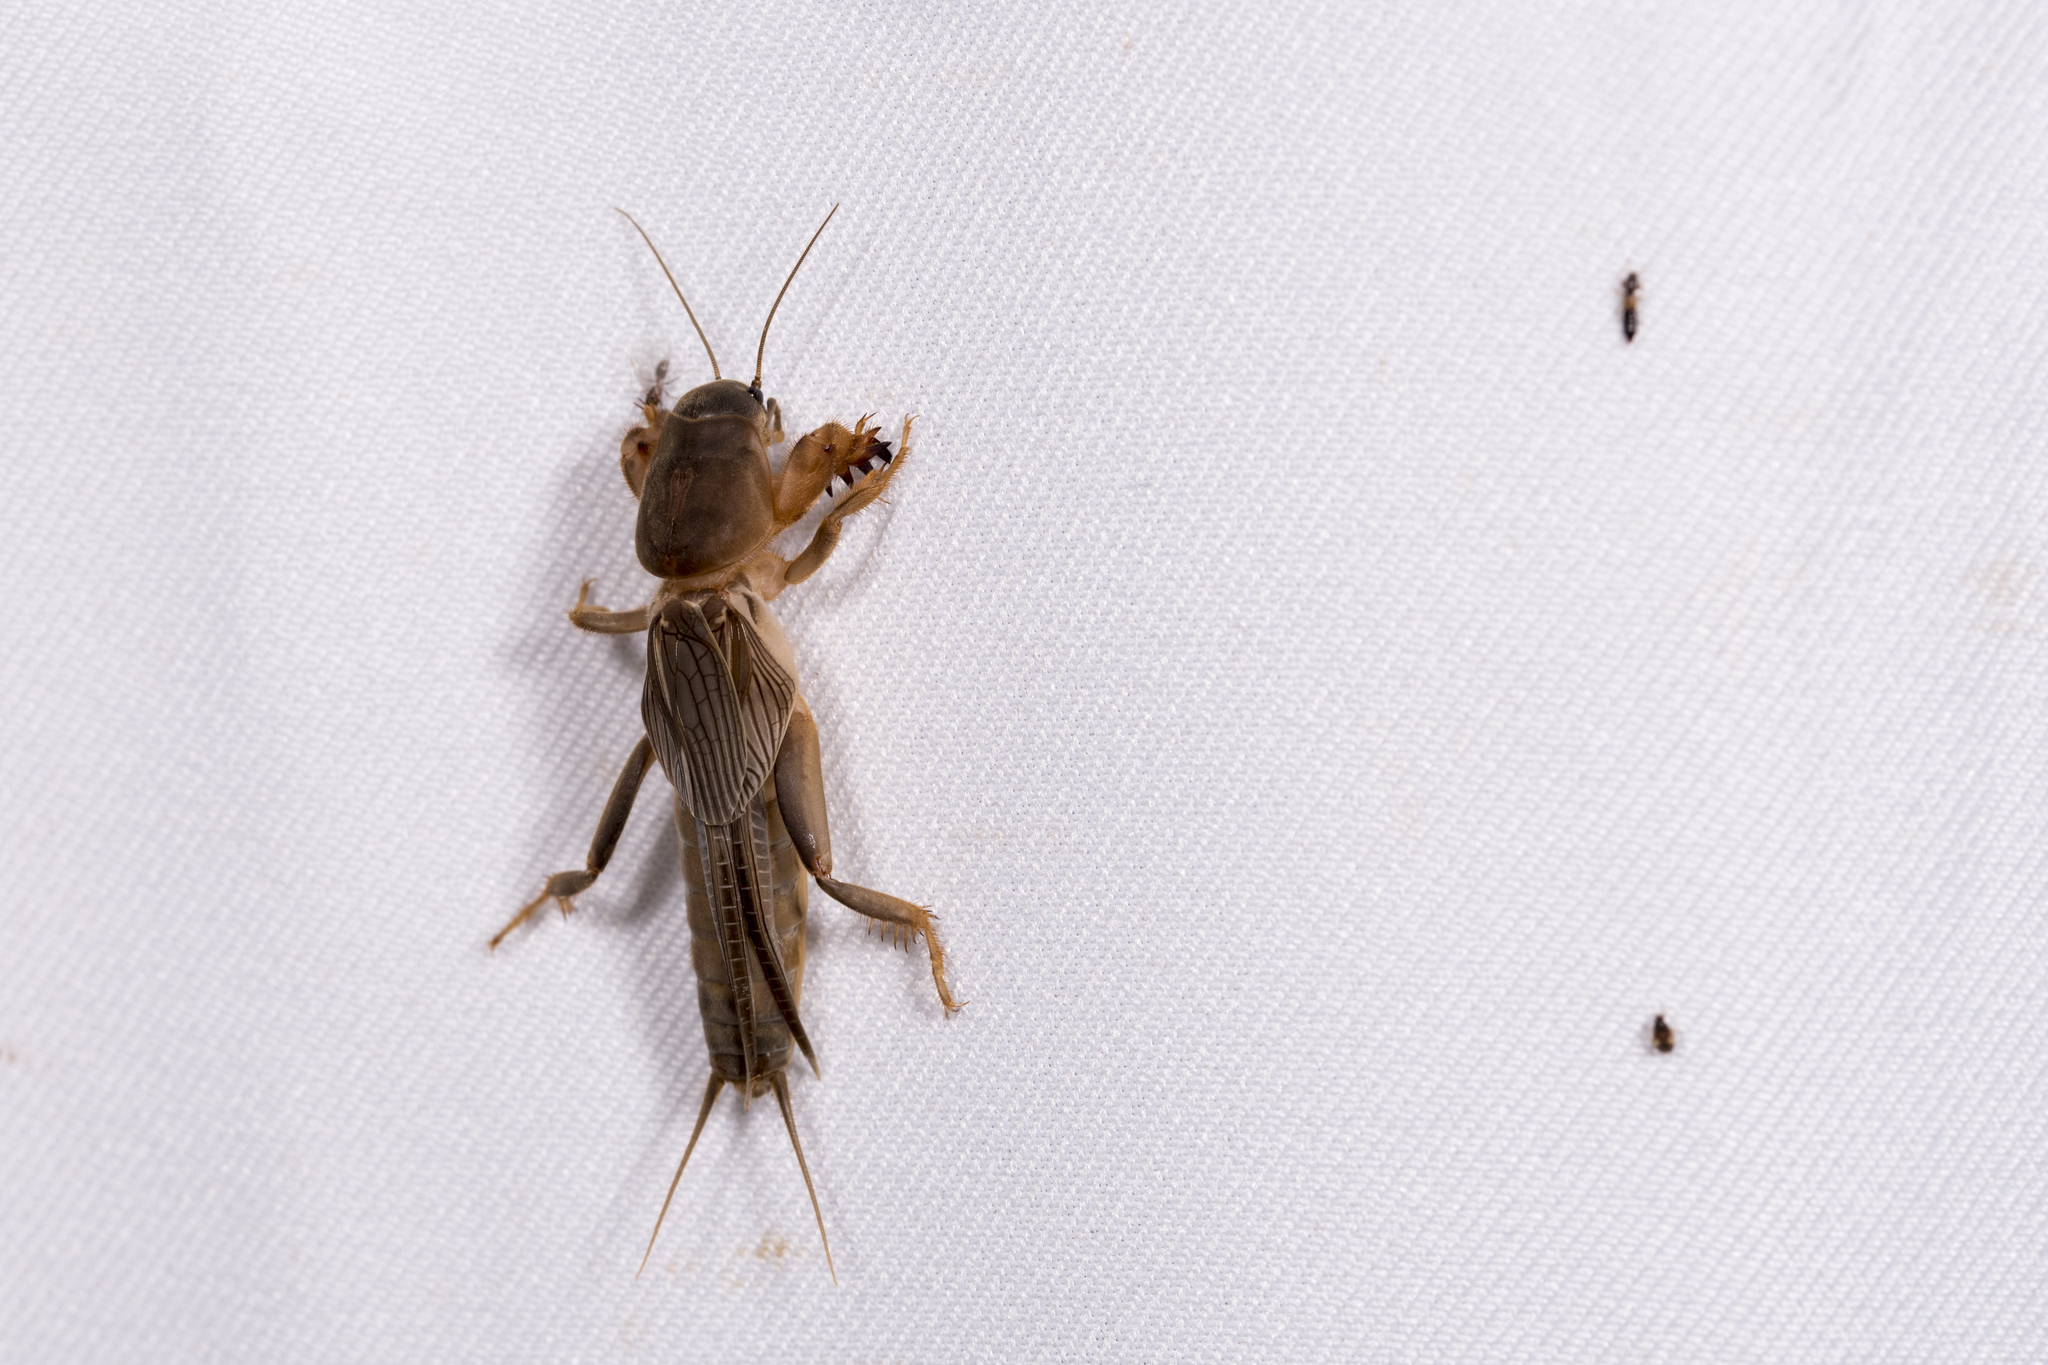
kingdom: Animalia
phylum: Arthropoda
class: Insecta
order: Orthoptera
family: Gryllotalpidae
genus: Gryllotalpa
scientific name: Gryllotalpa orientalis
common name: Grasshopper
